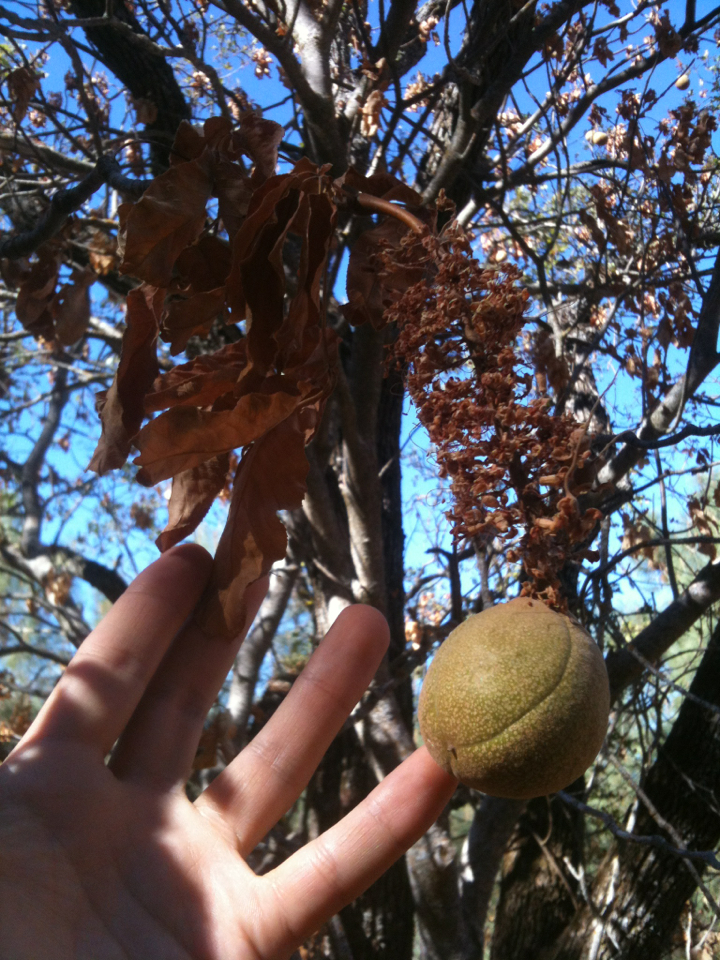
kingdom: Plantae
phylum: Tracheophyta
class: Magnoliopsida
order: Sapindales
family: Sapindaceae
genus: Aesculus
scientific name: Aesculus californica
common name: California buckeye
